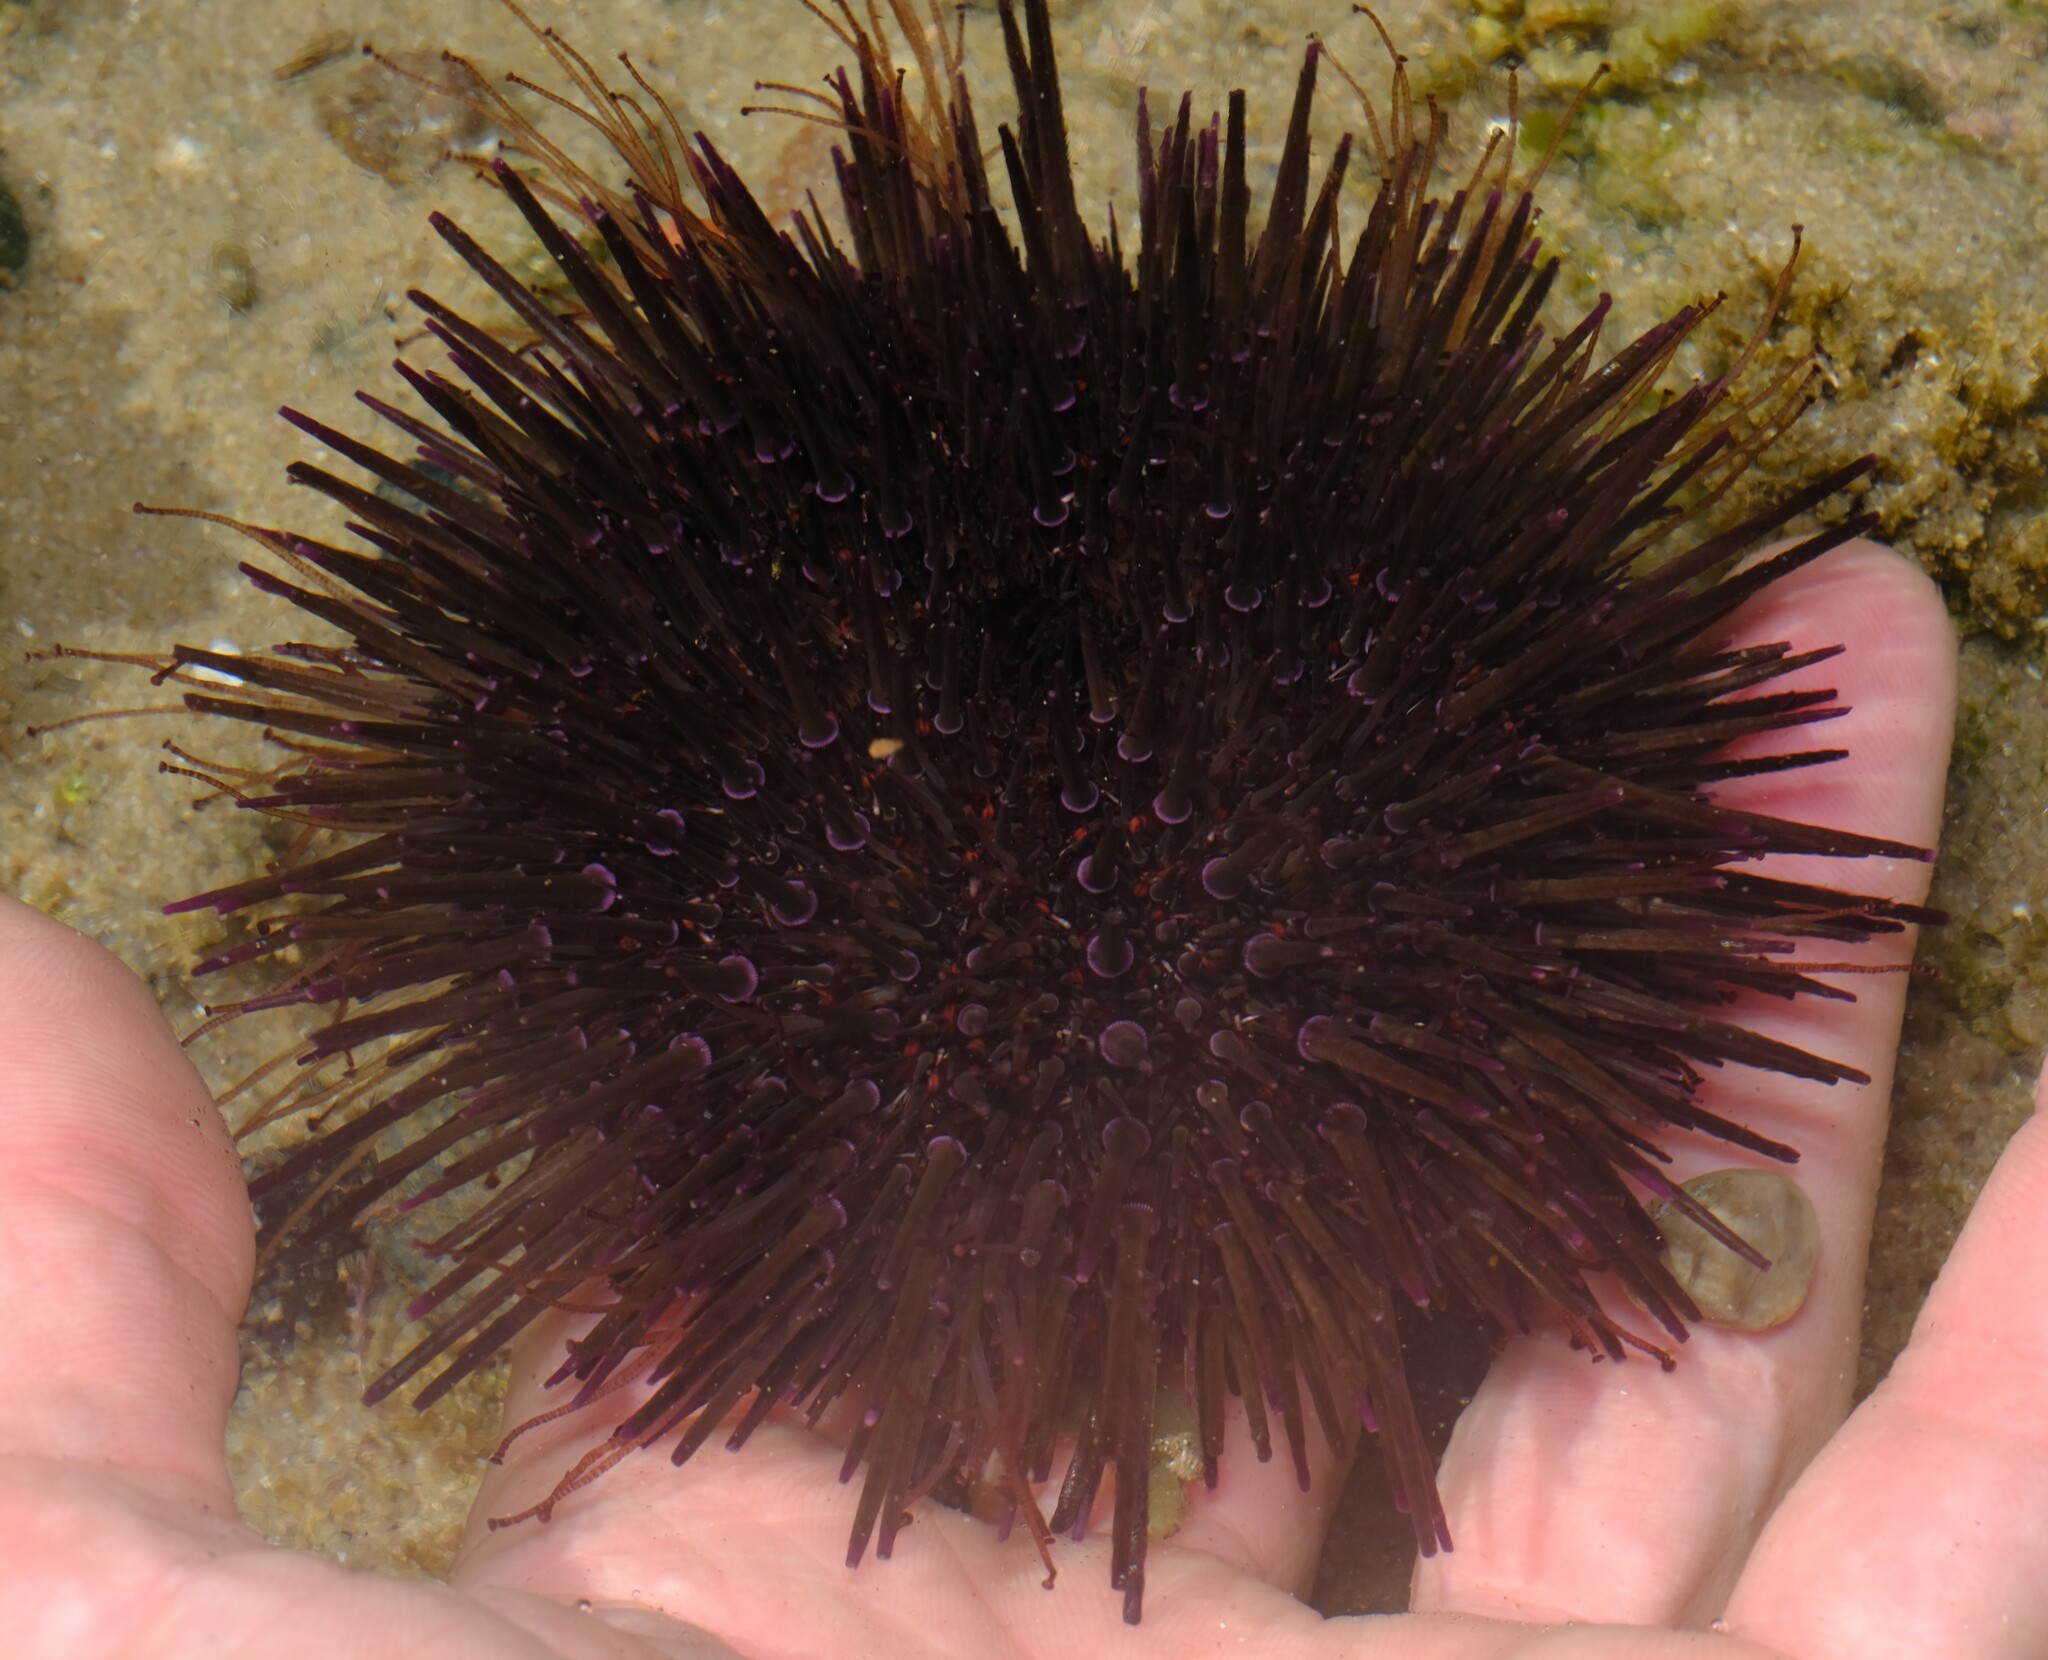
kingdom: Animalia
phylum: Echinodermata
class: Echinoidea
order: Camarodonta
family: Echinometridae
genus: Heliocidaris
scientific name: Heliocidaris erythrogramma
